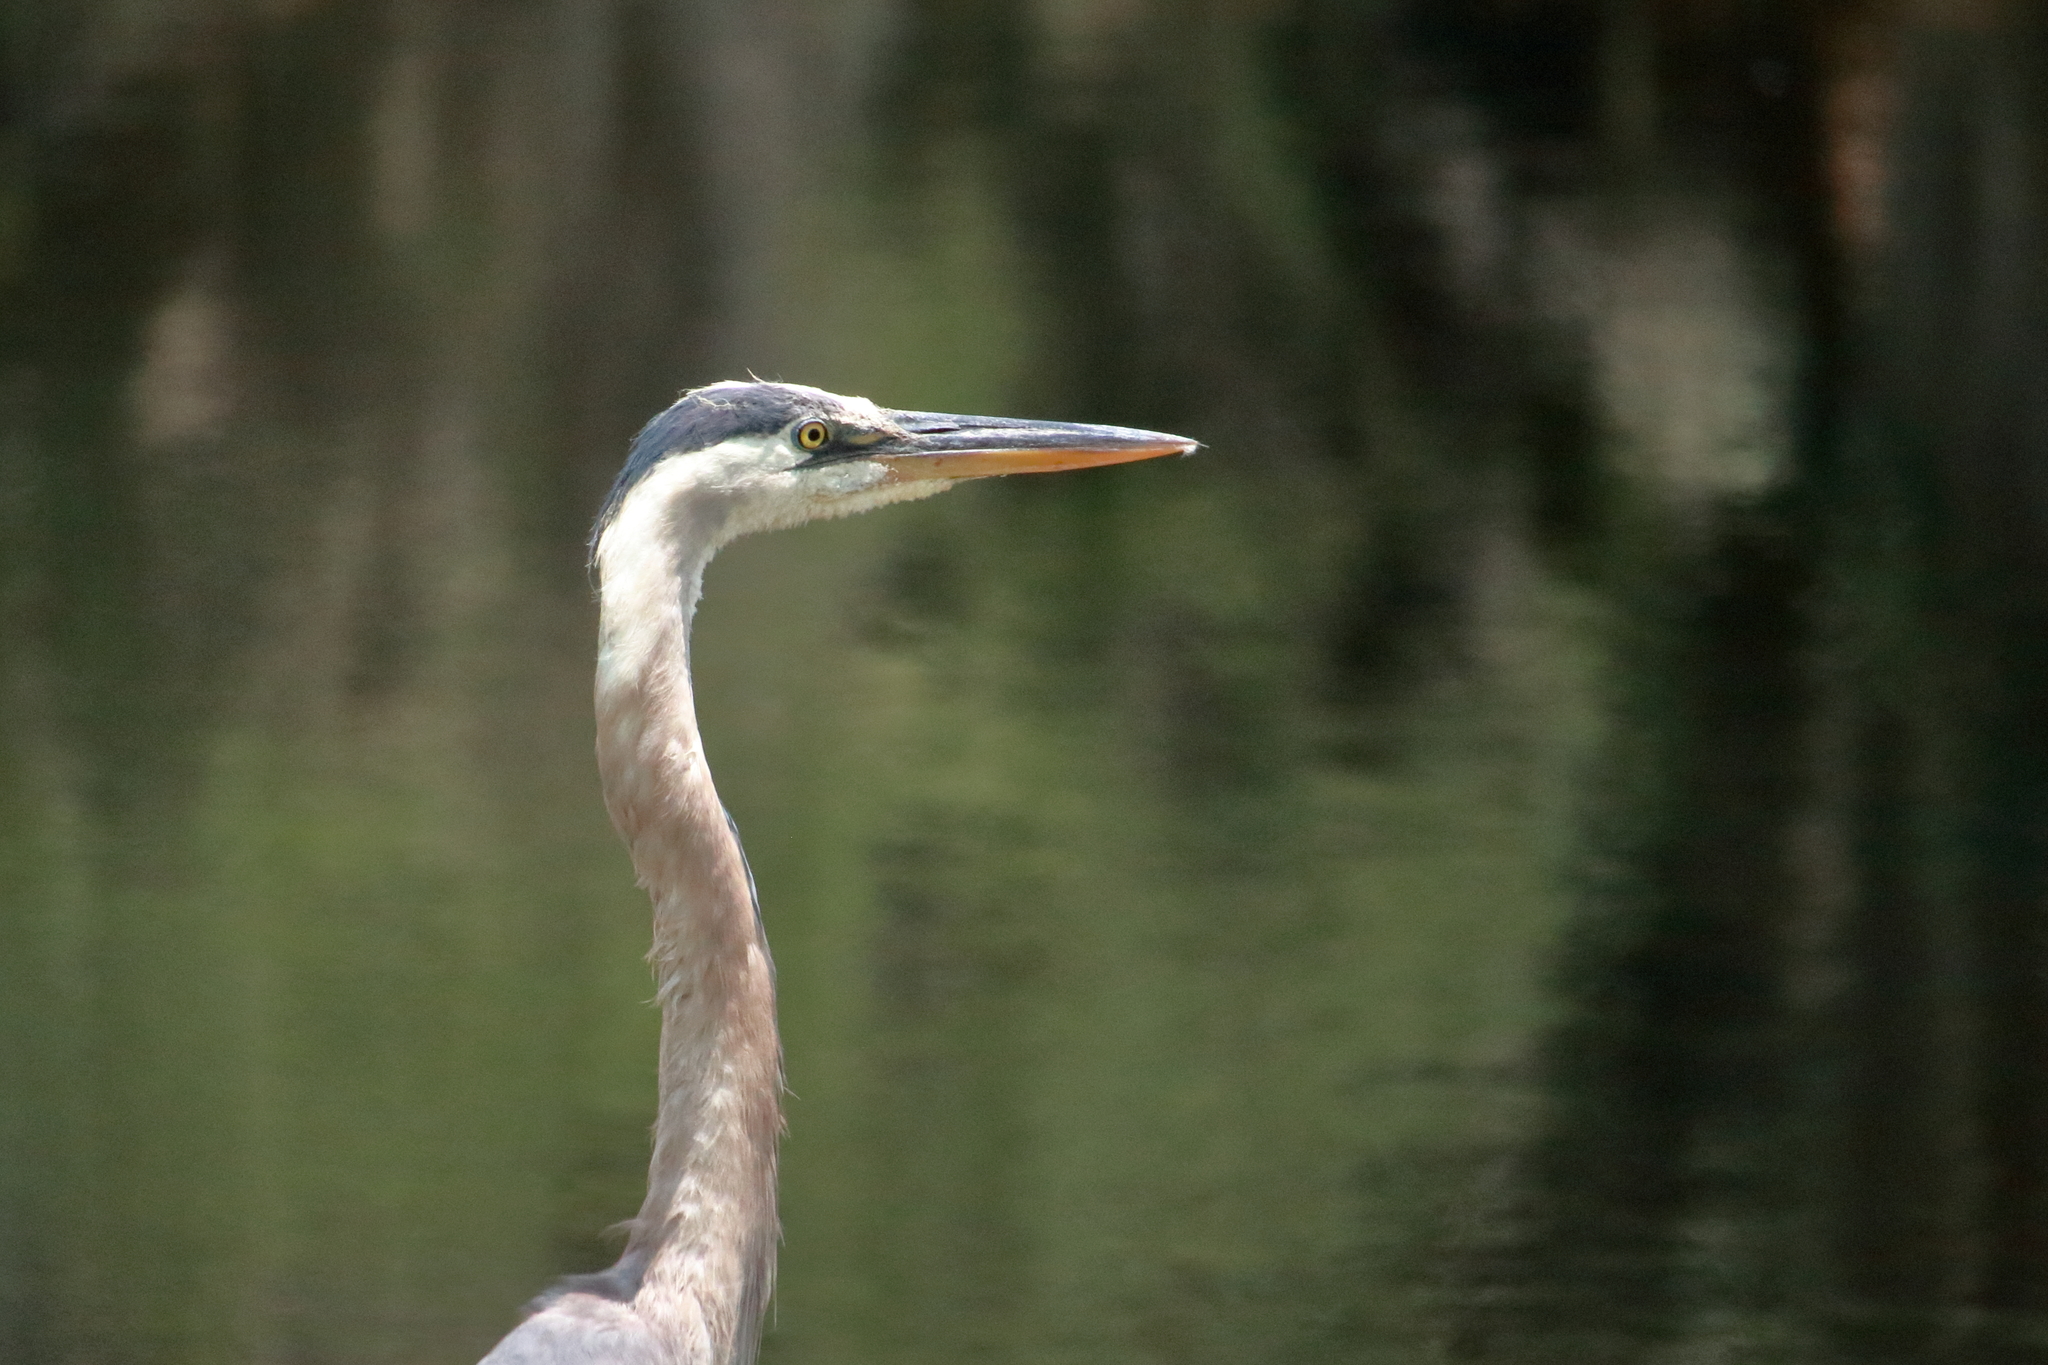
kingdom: Animalia
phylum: Chordata
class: Aves
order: Pelecaniformes
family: Ardeidae
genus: Ardea
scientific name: Ardea herodias
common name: Great blue heron
